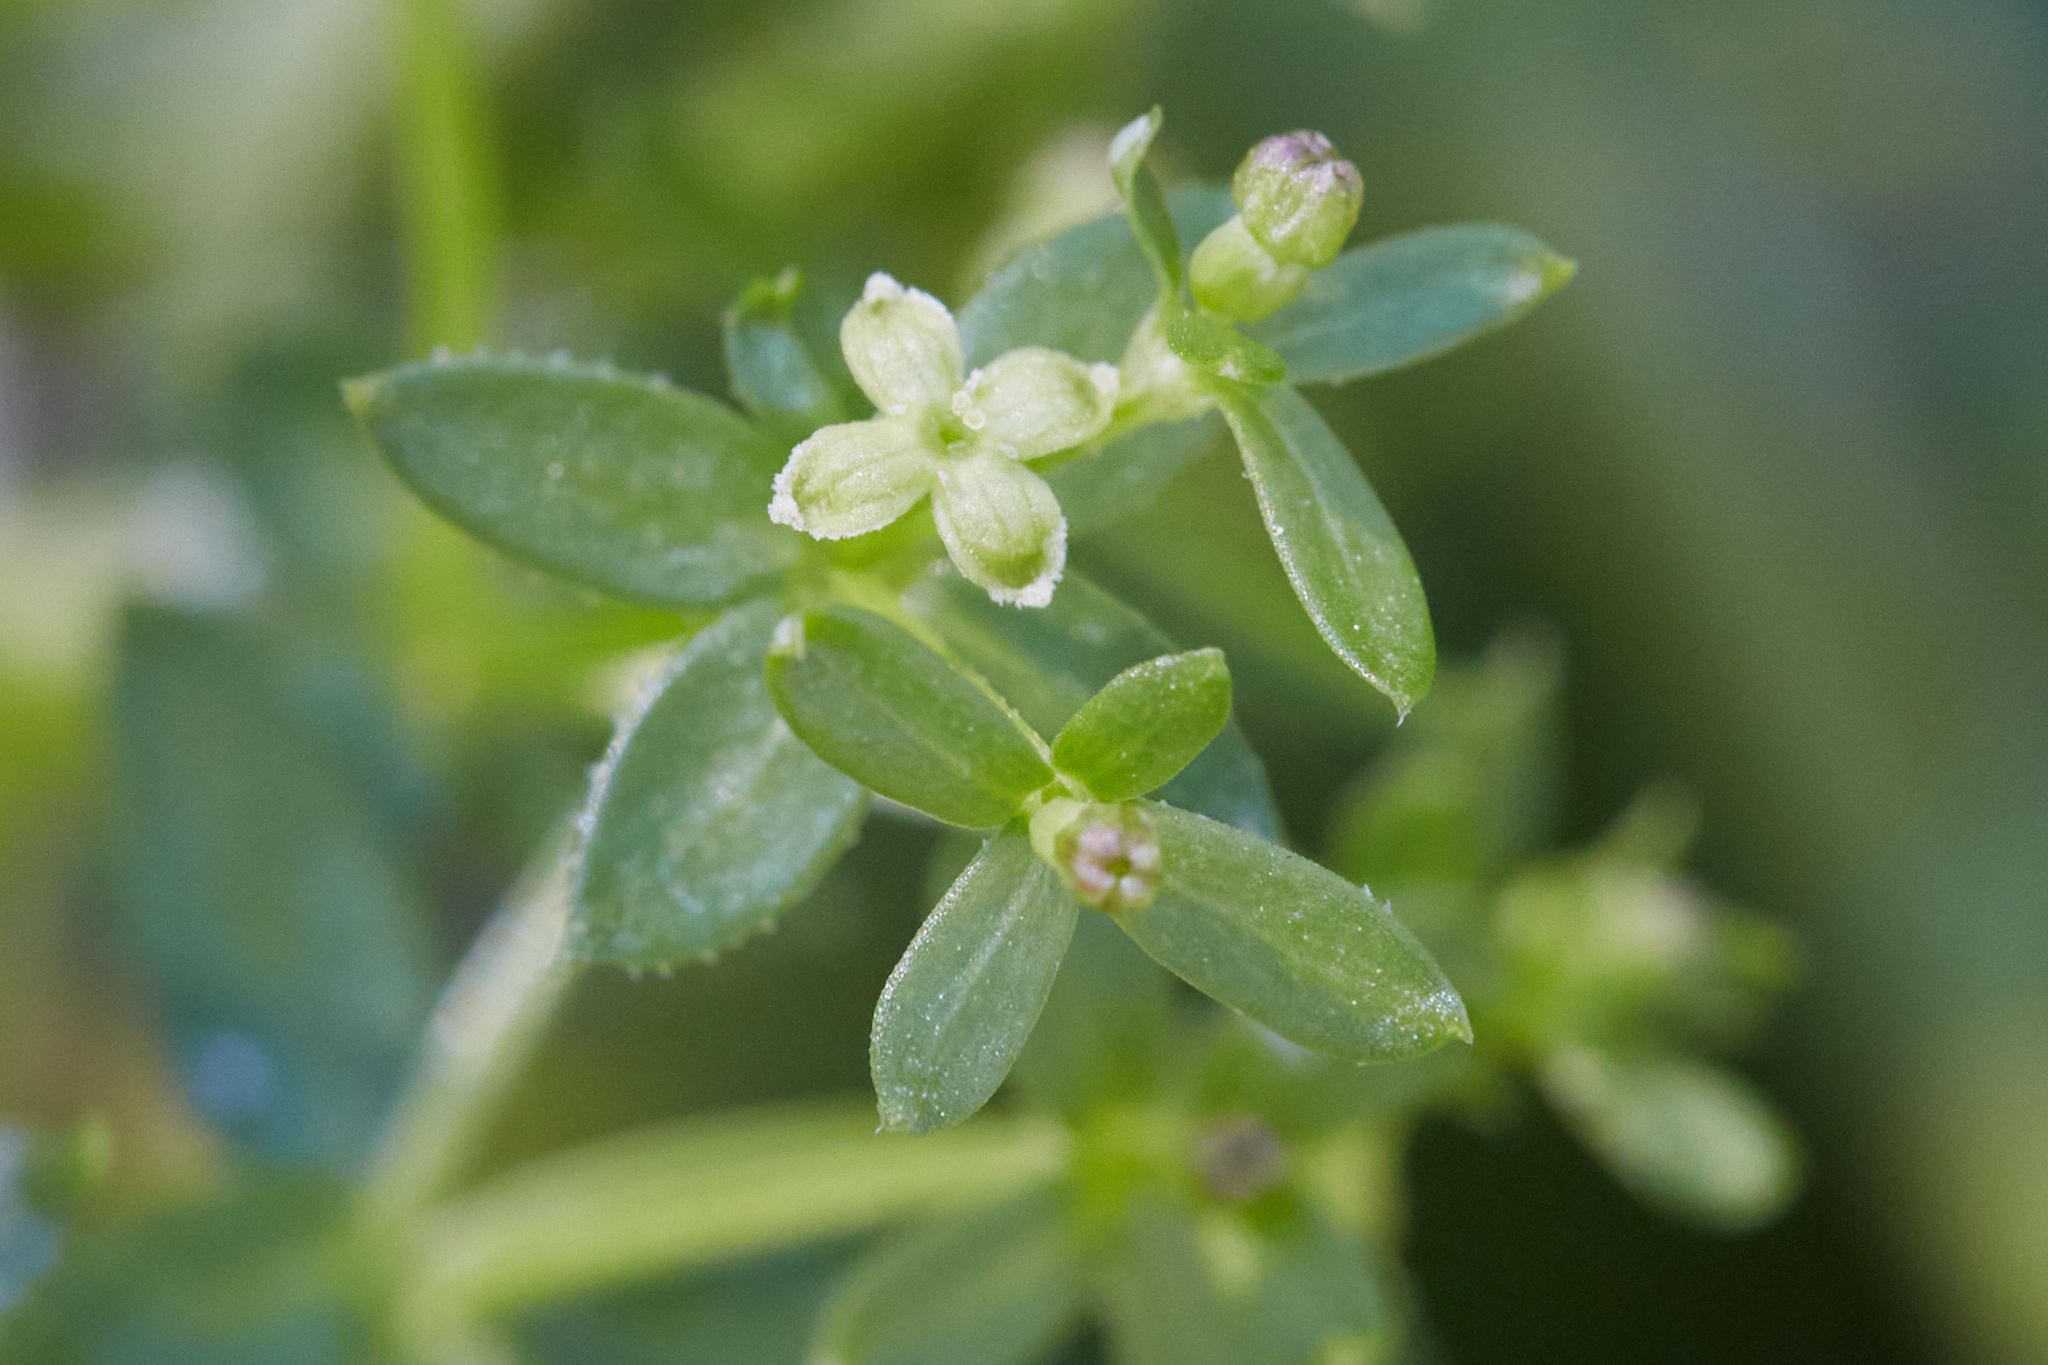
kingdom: Plantae
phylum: Tracheophyta
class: Magnoliopsida
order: Gentianales
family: Rubiaceae
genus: Galium
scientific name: Galium porrigens
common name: Climbing bedstraw
